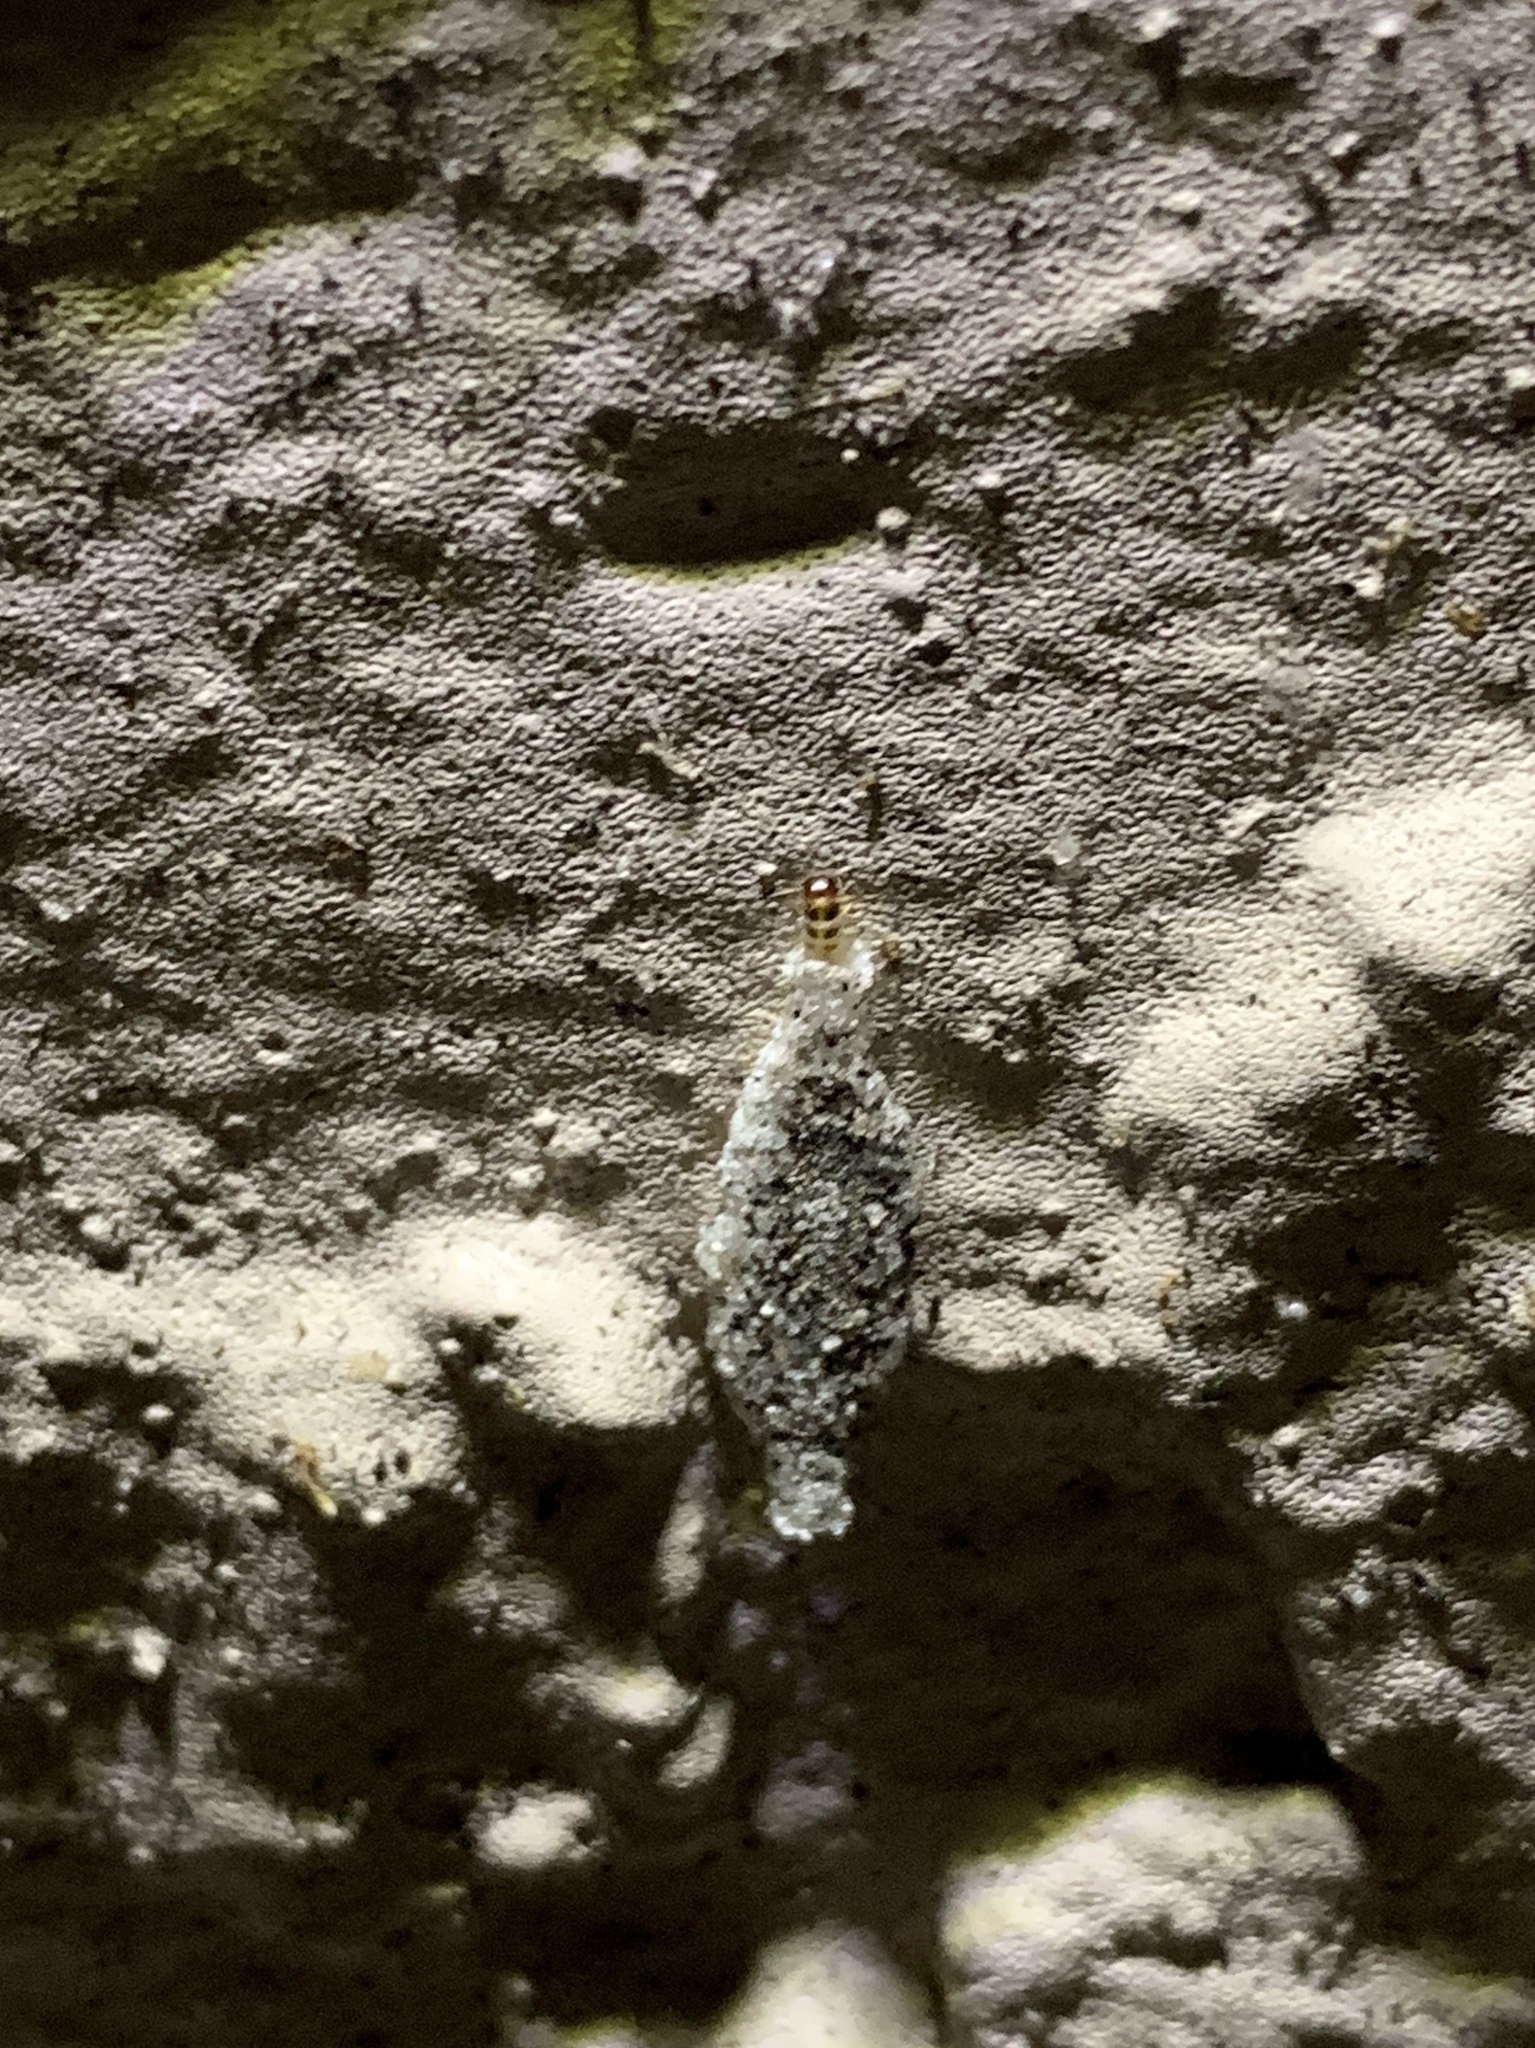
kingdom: Animalia
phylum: Arthropoda
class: Insecta
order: Lepidoptera
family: Tineidae
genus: Phereoeca
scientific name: Phereoeca uterella
